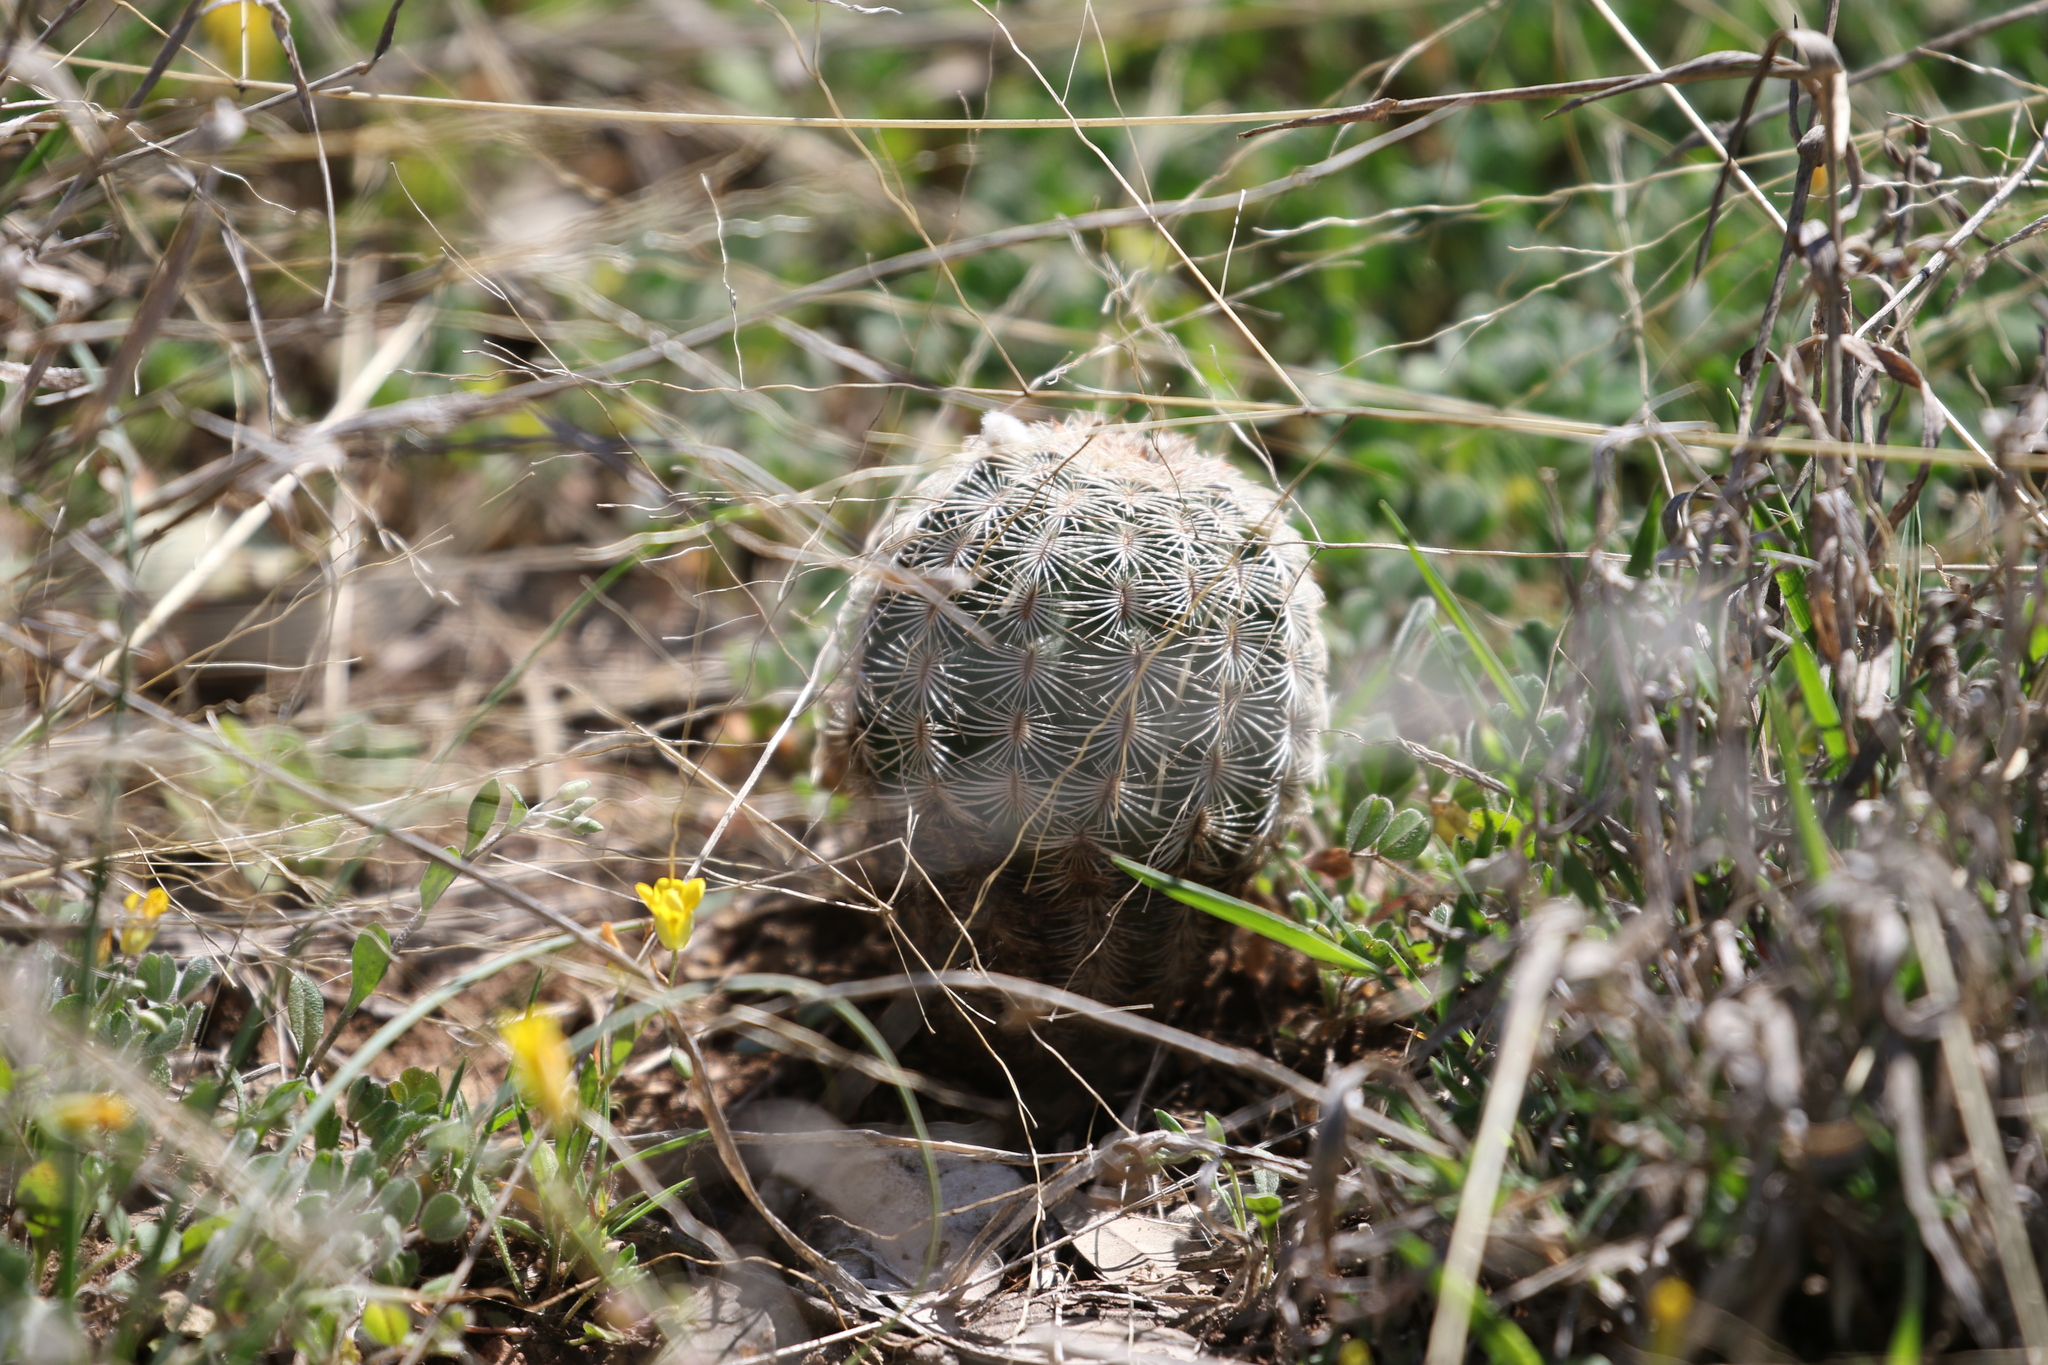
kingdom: Plantae
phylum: Tracheophyta
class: Magnoliopsida
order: Caryophyllales
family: Cactaceae
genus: Echinocereus
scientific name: Echinocereus reichenbachii
